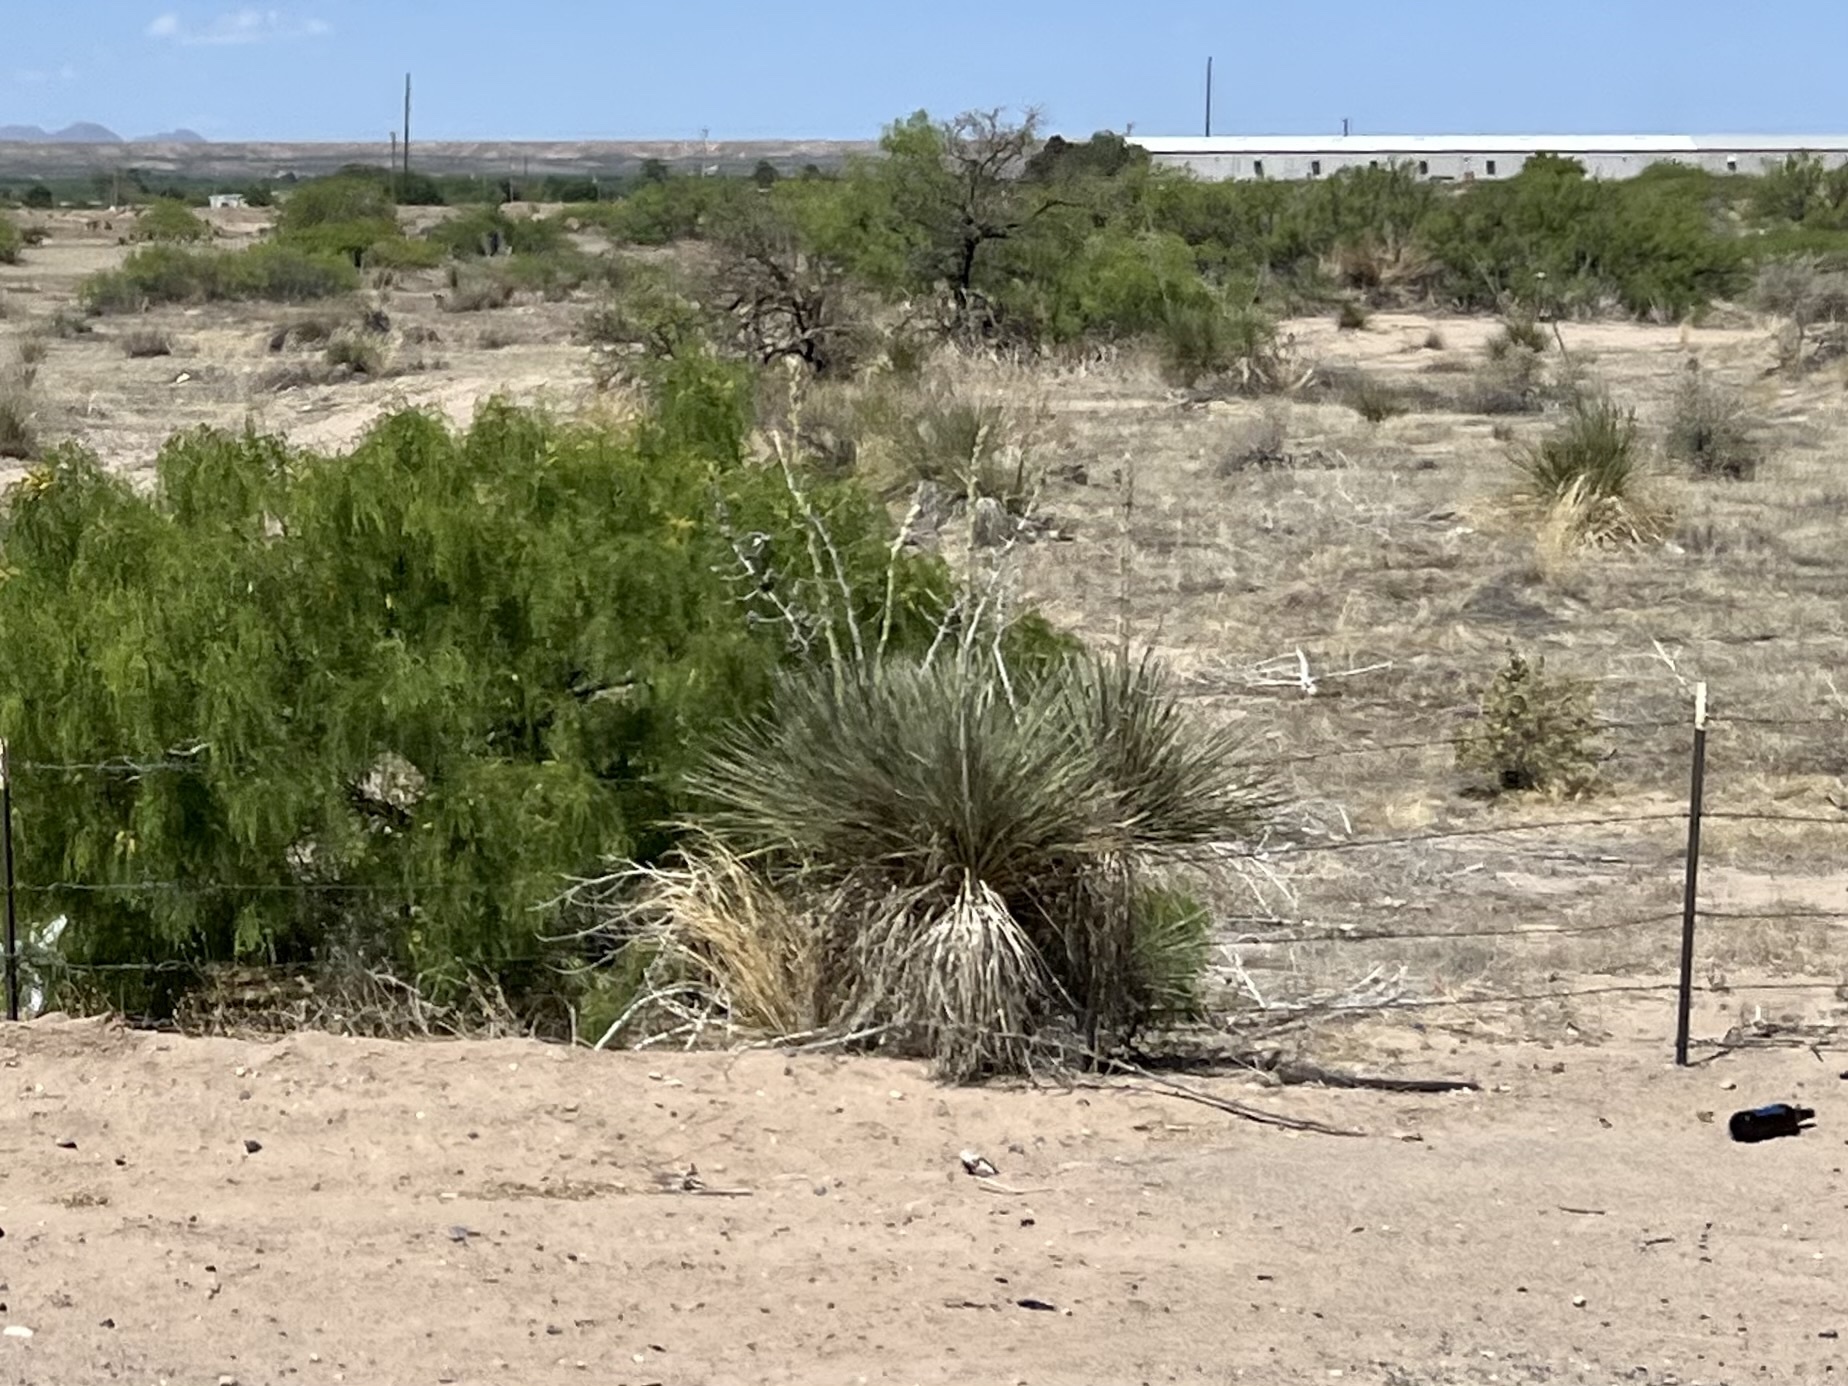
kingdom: Plantae
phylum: Tracheophyta
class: Liliopsida
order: Asparagales
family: Asparagaceae
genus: Yucca
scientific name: Yucca elata
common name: Palmella
